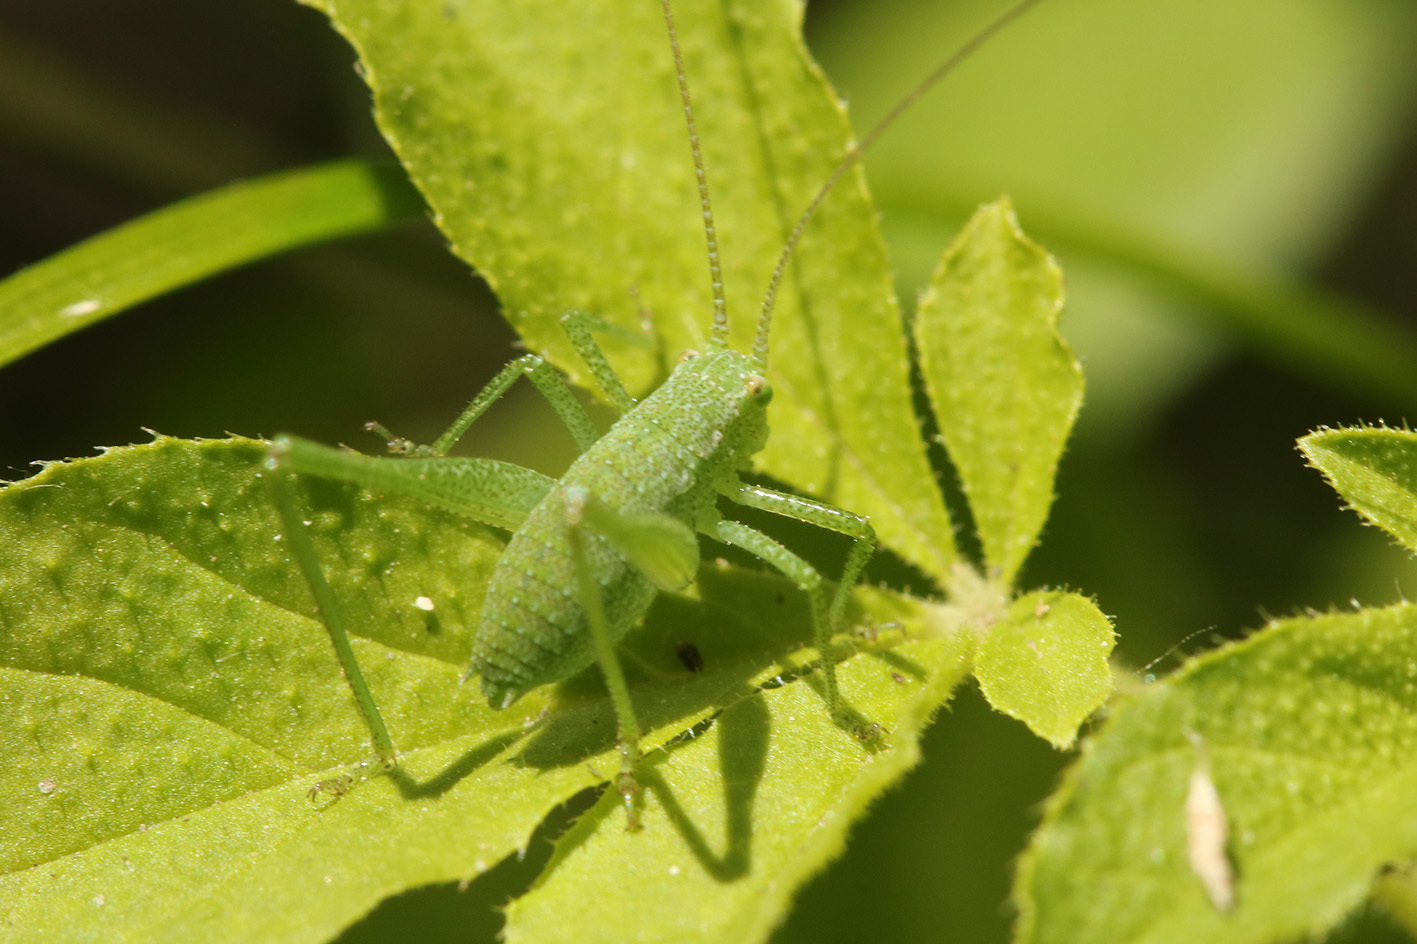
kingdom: Animalia
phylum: Arthropoda
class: Insecta
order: Orthoptera
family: Tettigoniidae
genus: Anisophya
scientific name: Anisophya
